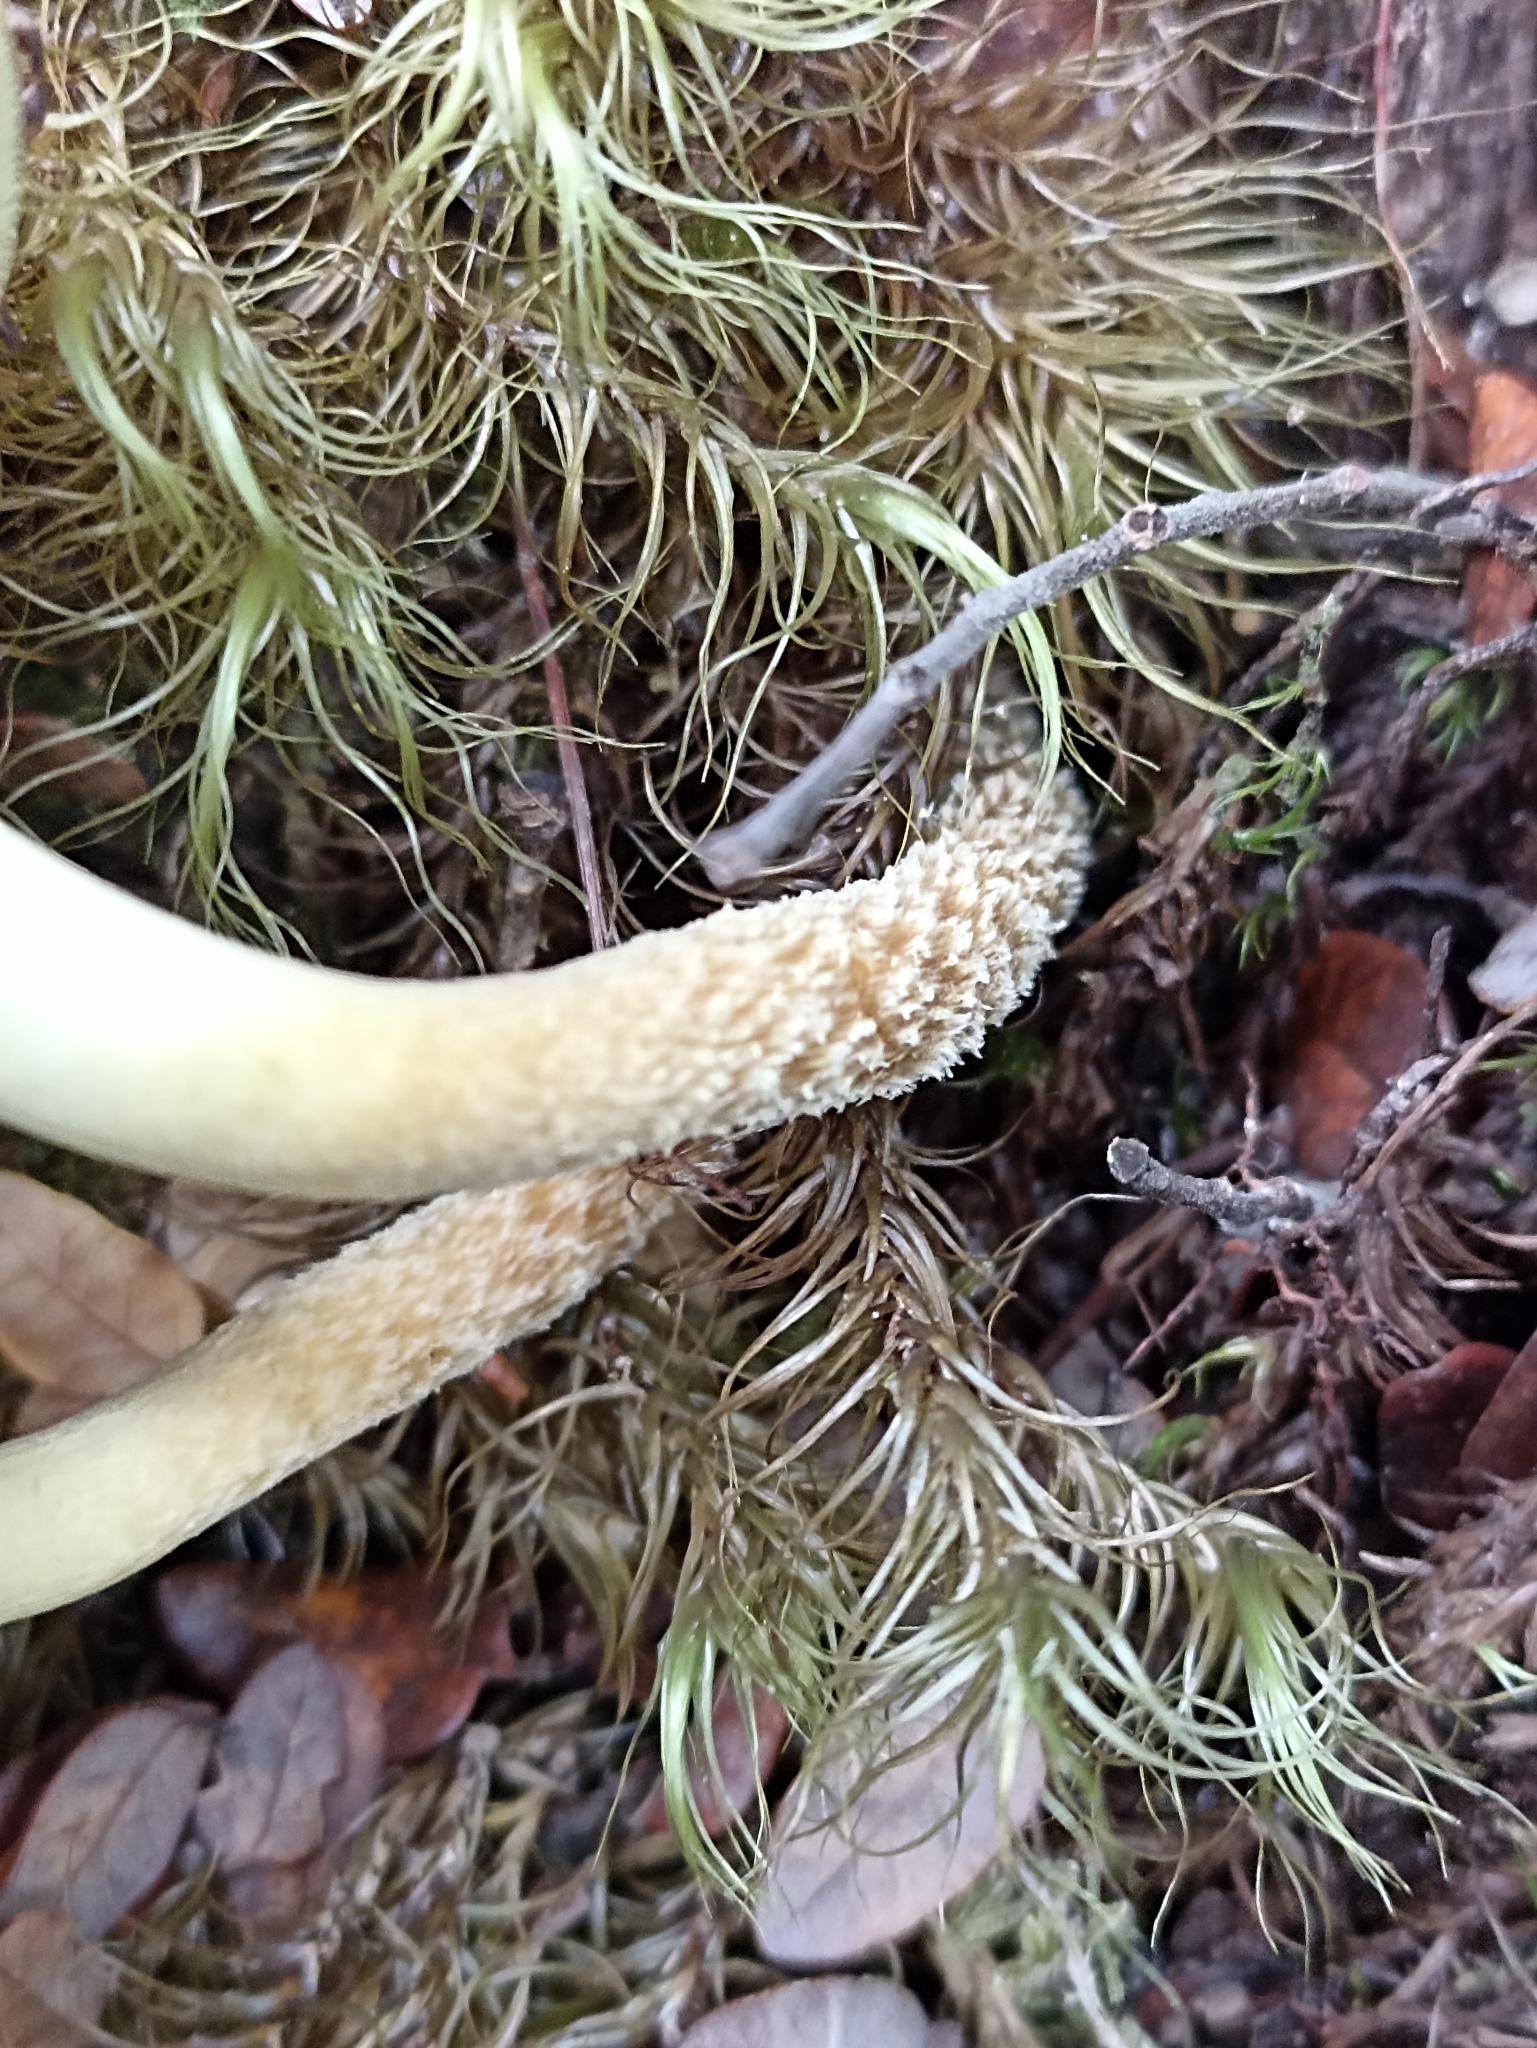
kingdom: Fungi
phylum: Basidiomycota
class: Agaricomycetes
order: Agaricales
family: Strophariaceae
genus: Hypholoma
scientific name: Hypholoma australianum
